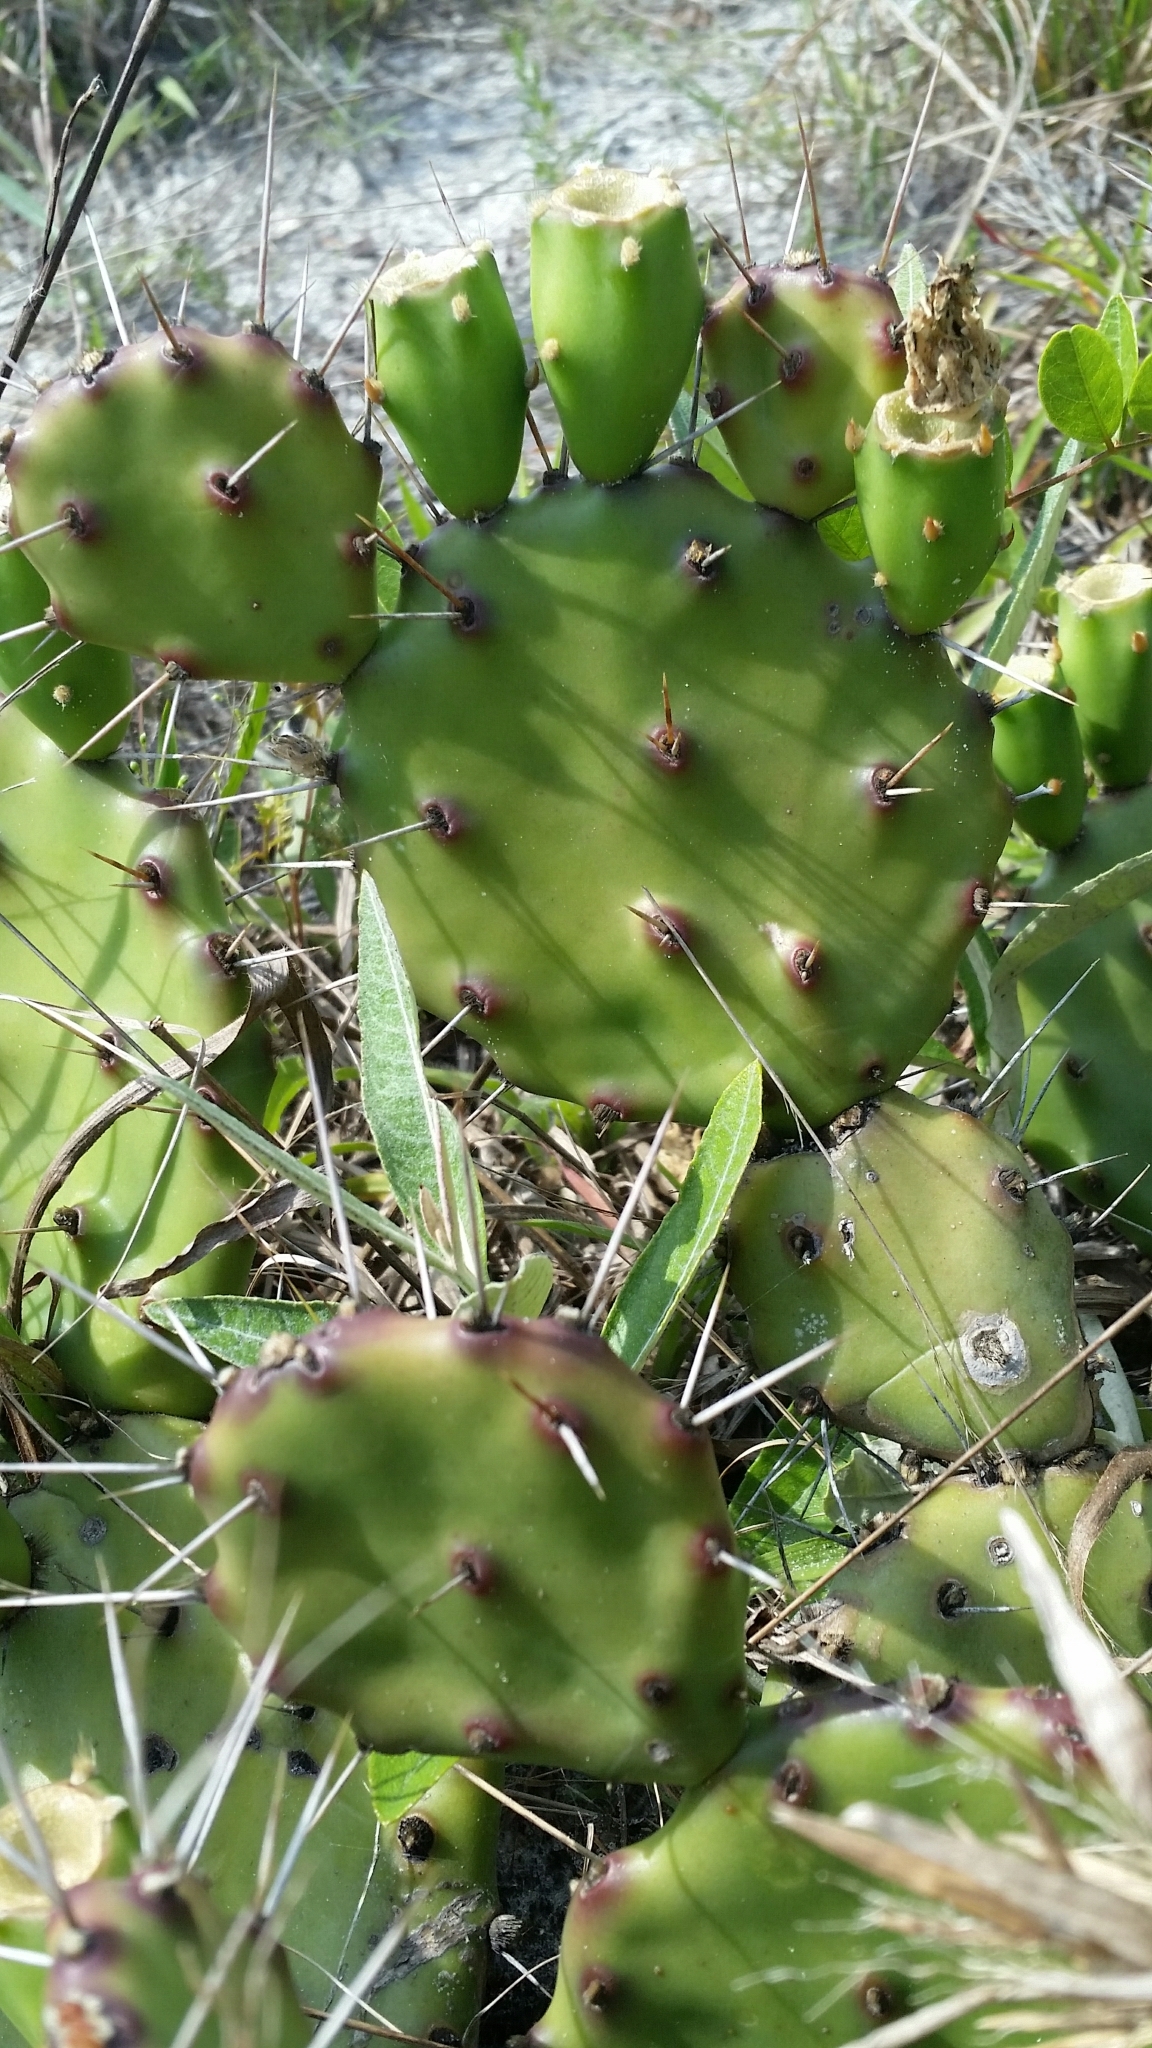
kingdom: Plantae
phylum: Tracheophyta
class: Magnoliopsida
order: Caryophyllales
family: Cactaceae
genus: Opuntia
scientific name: Opuntia mesacantha
